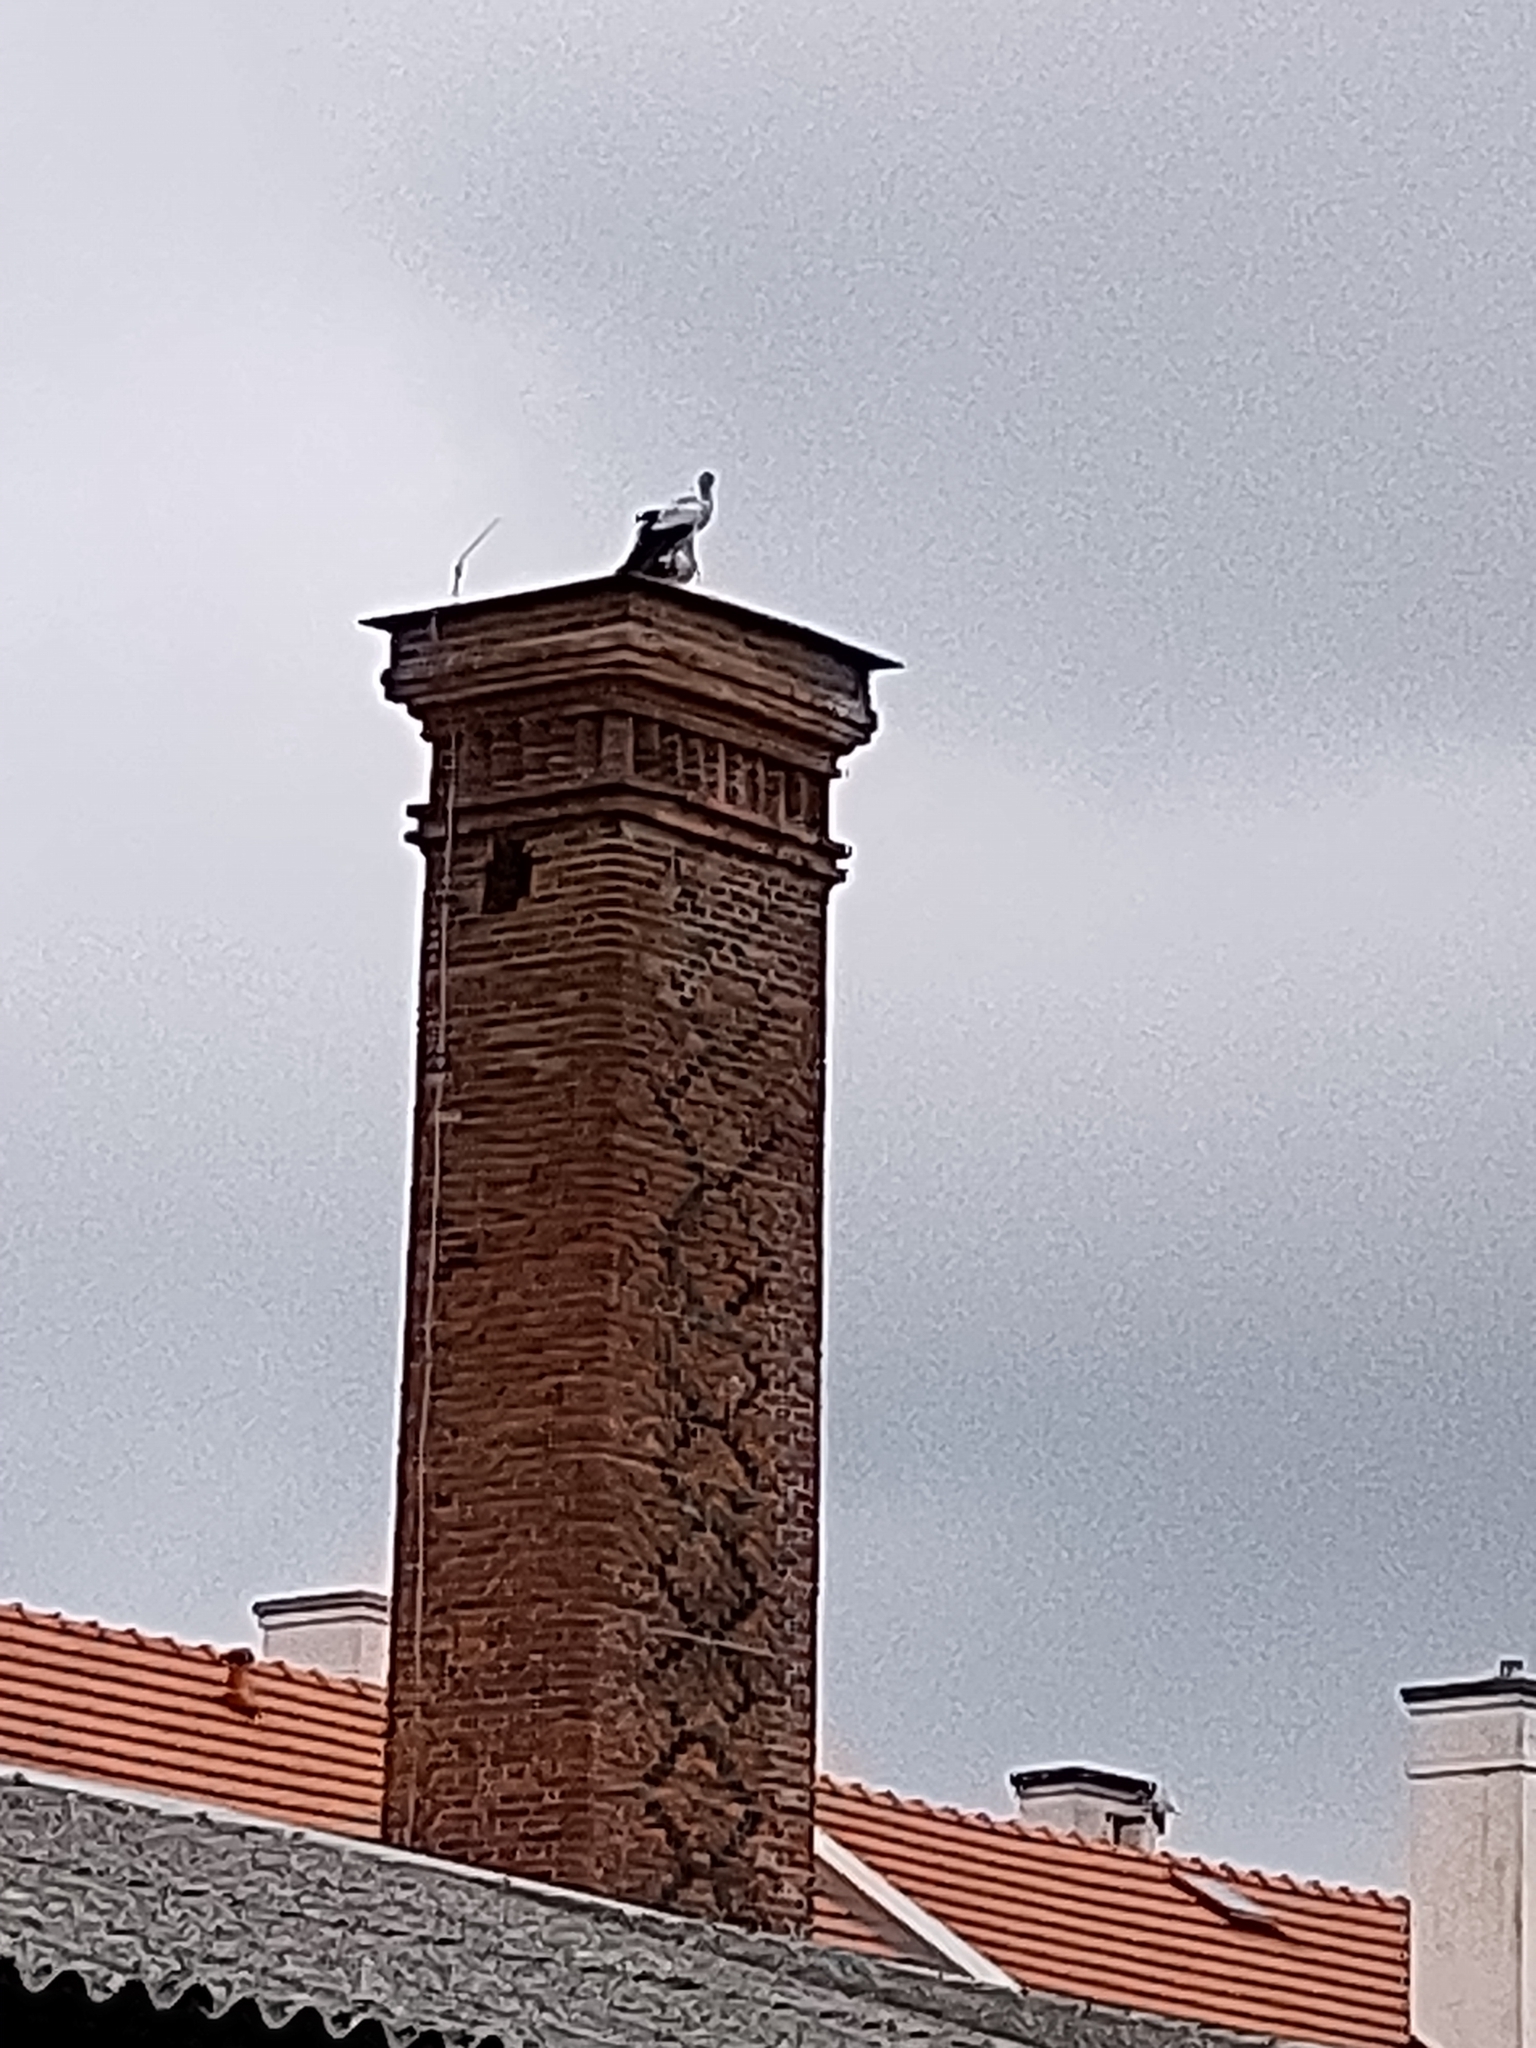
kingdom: Animalia
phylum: Chordata
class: Aves
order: Ciconiiformes
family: Ciconiidae
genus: Ciconia
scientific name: Ciconia ciconia
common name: White stork
